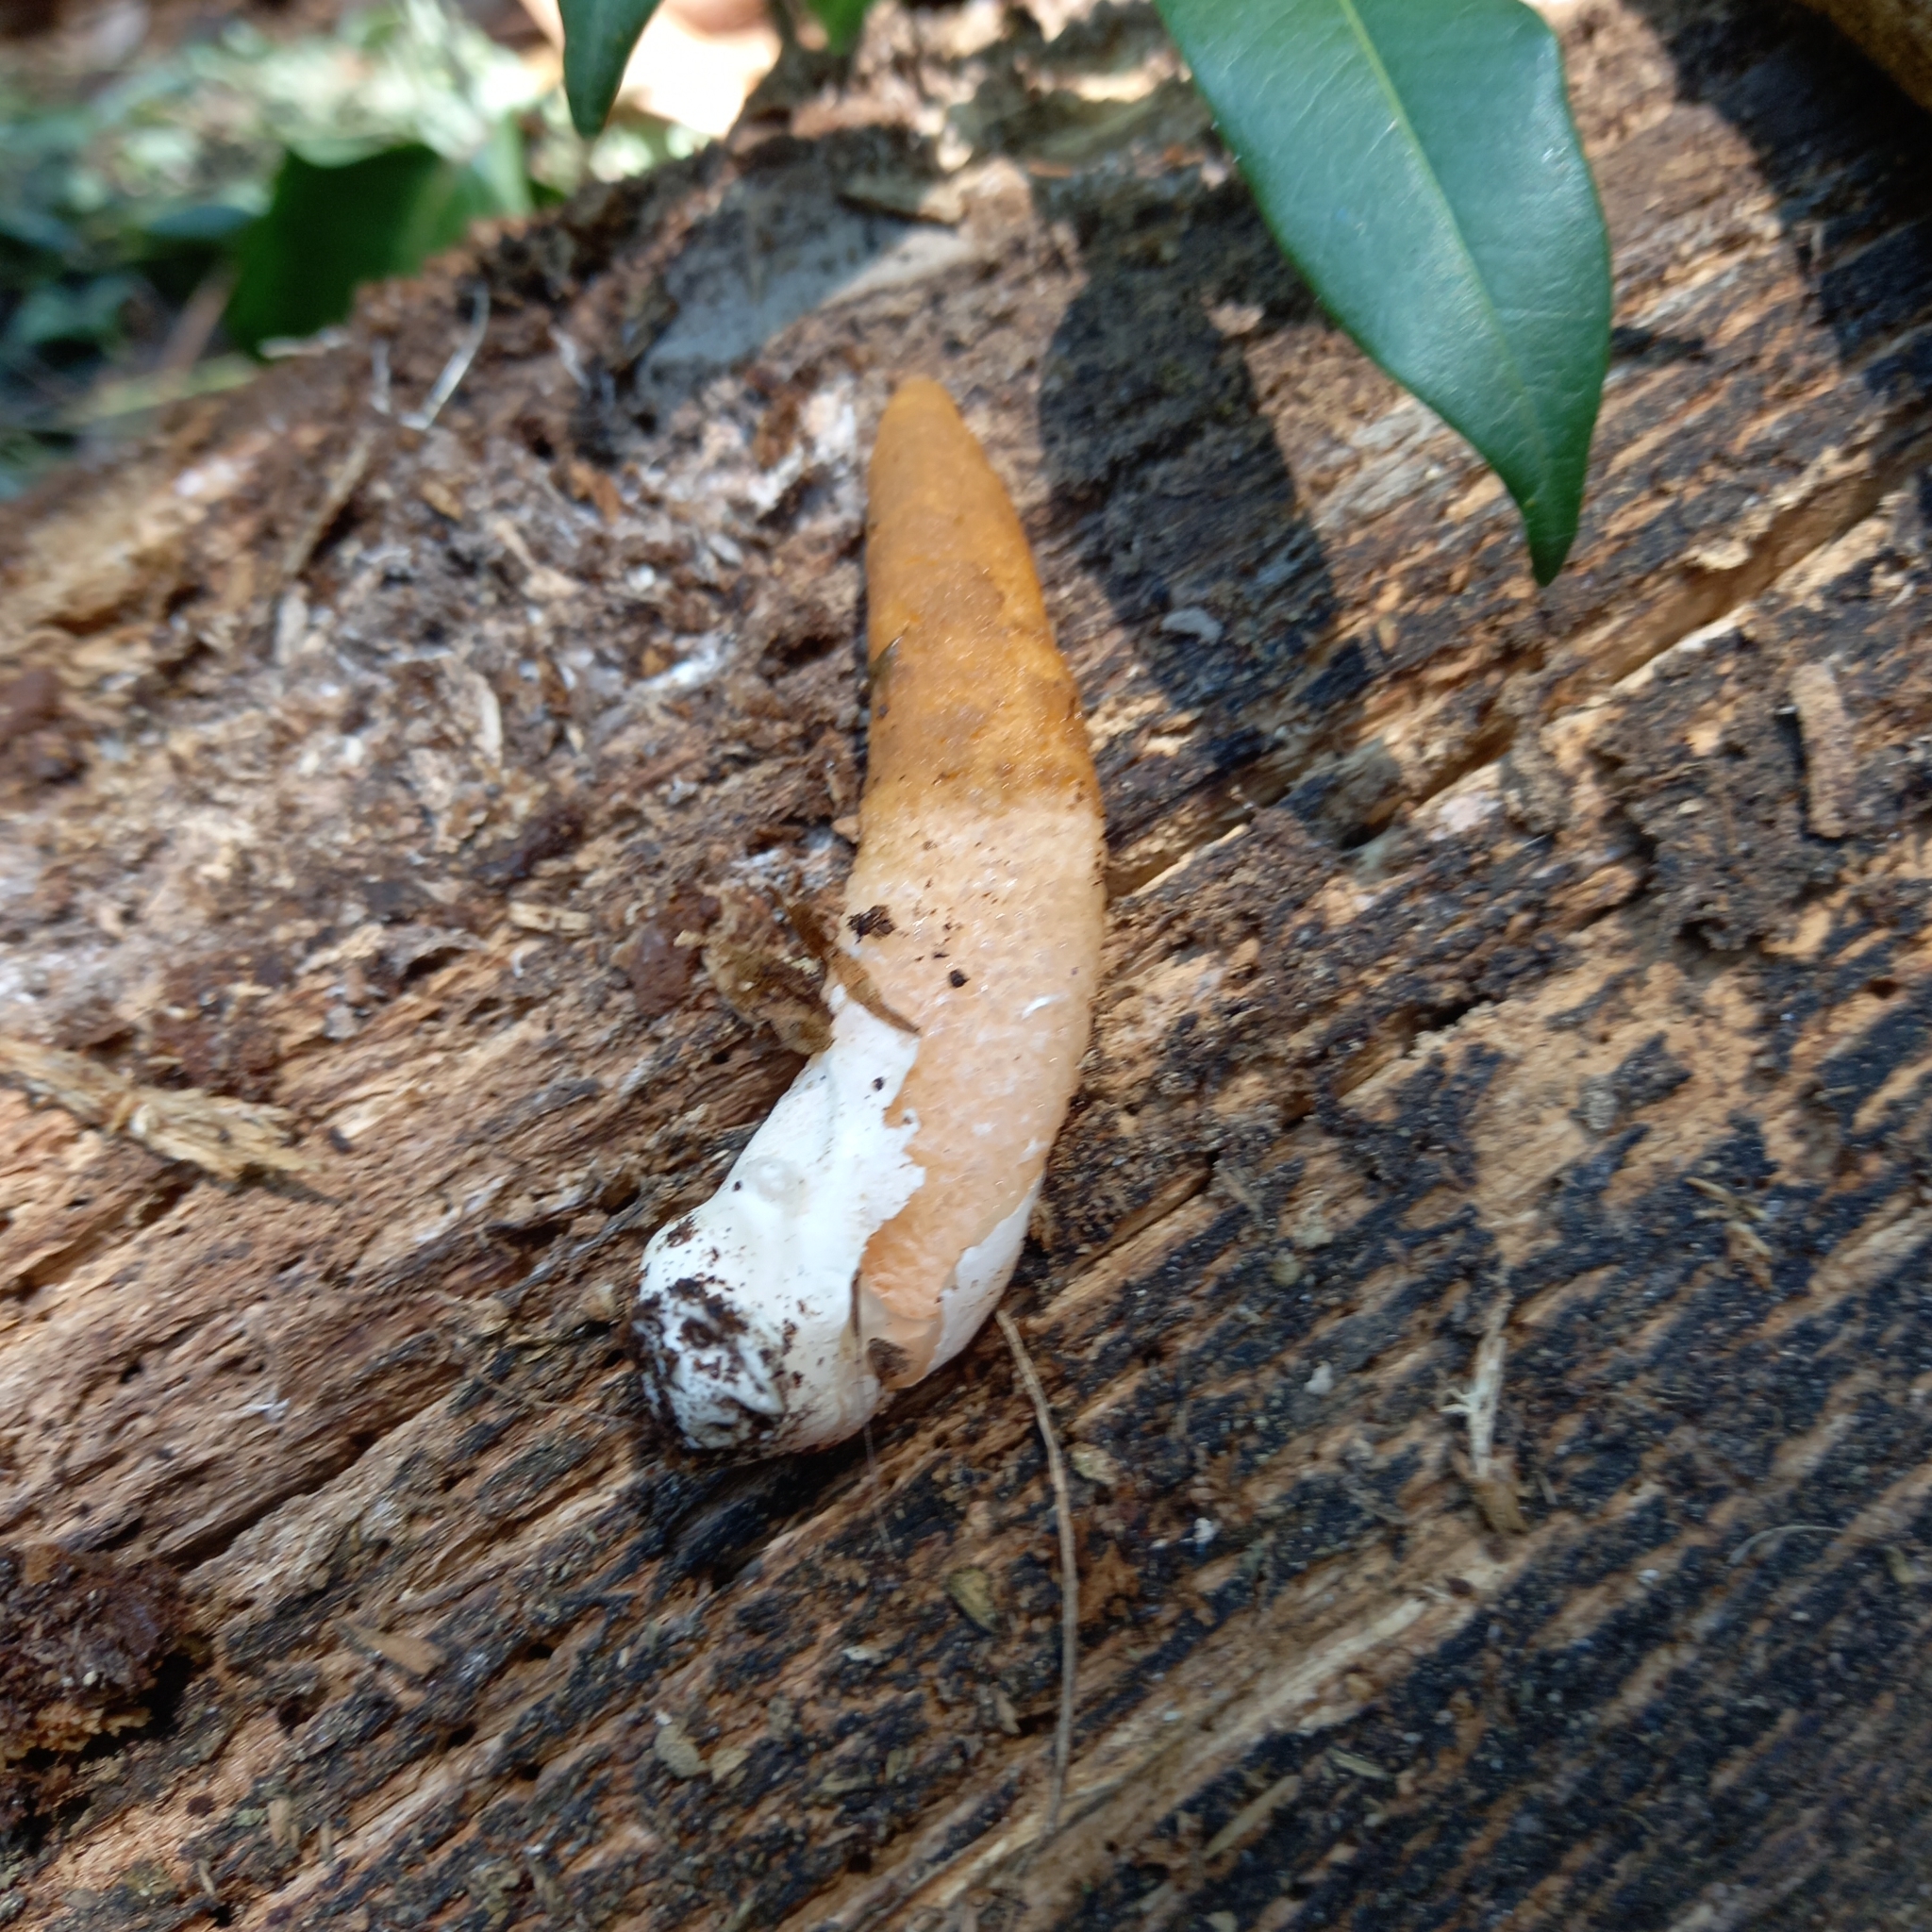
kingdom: Fungi
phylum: Basidiomycota
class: Agaricomycetes
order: Phallales
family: Phallaceae
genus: Mutinus
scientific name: Mutinus argentinus
